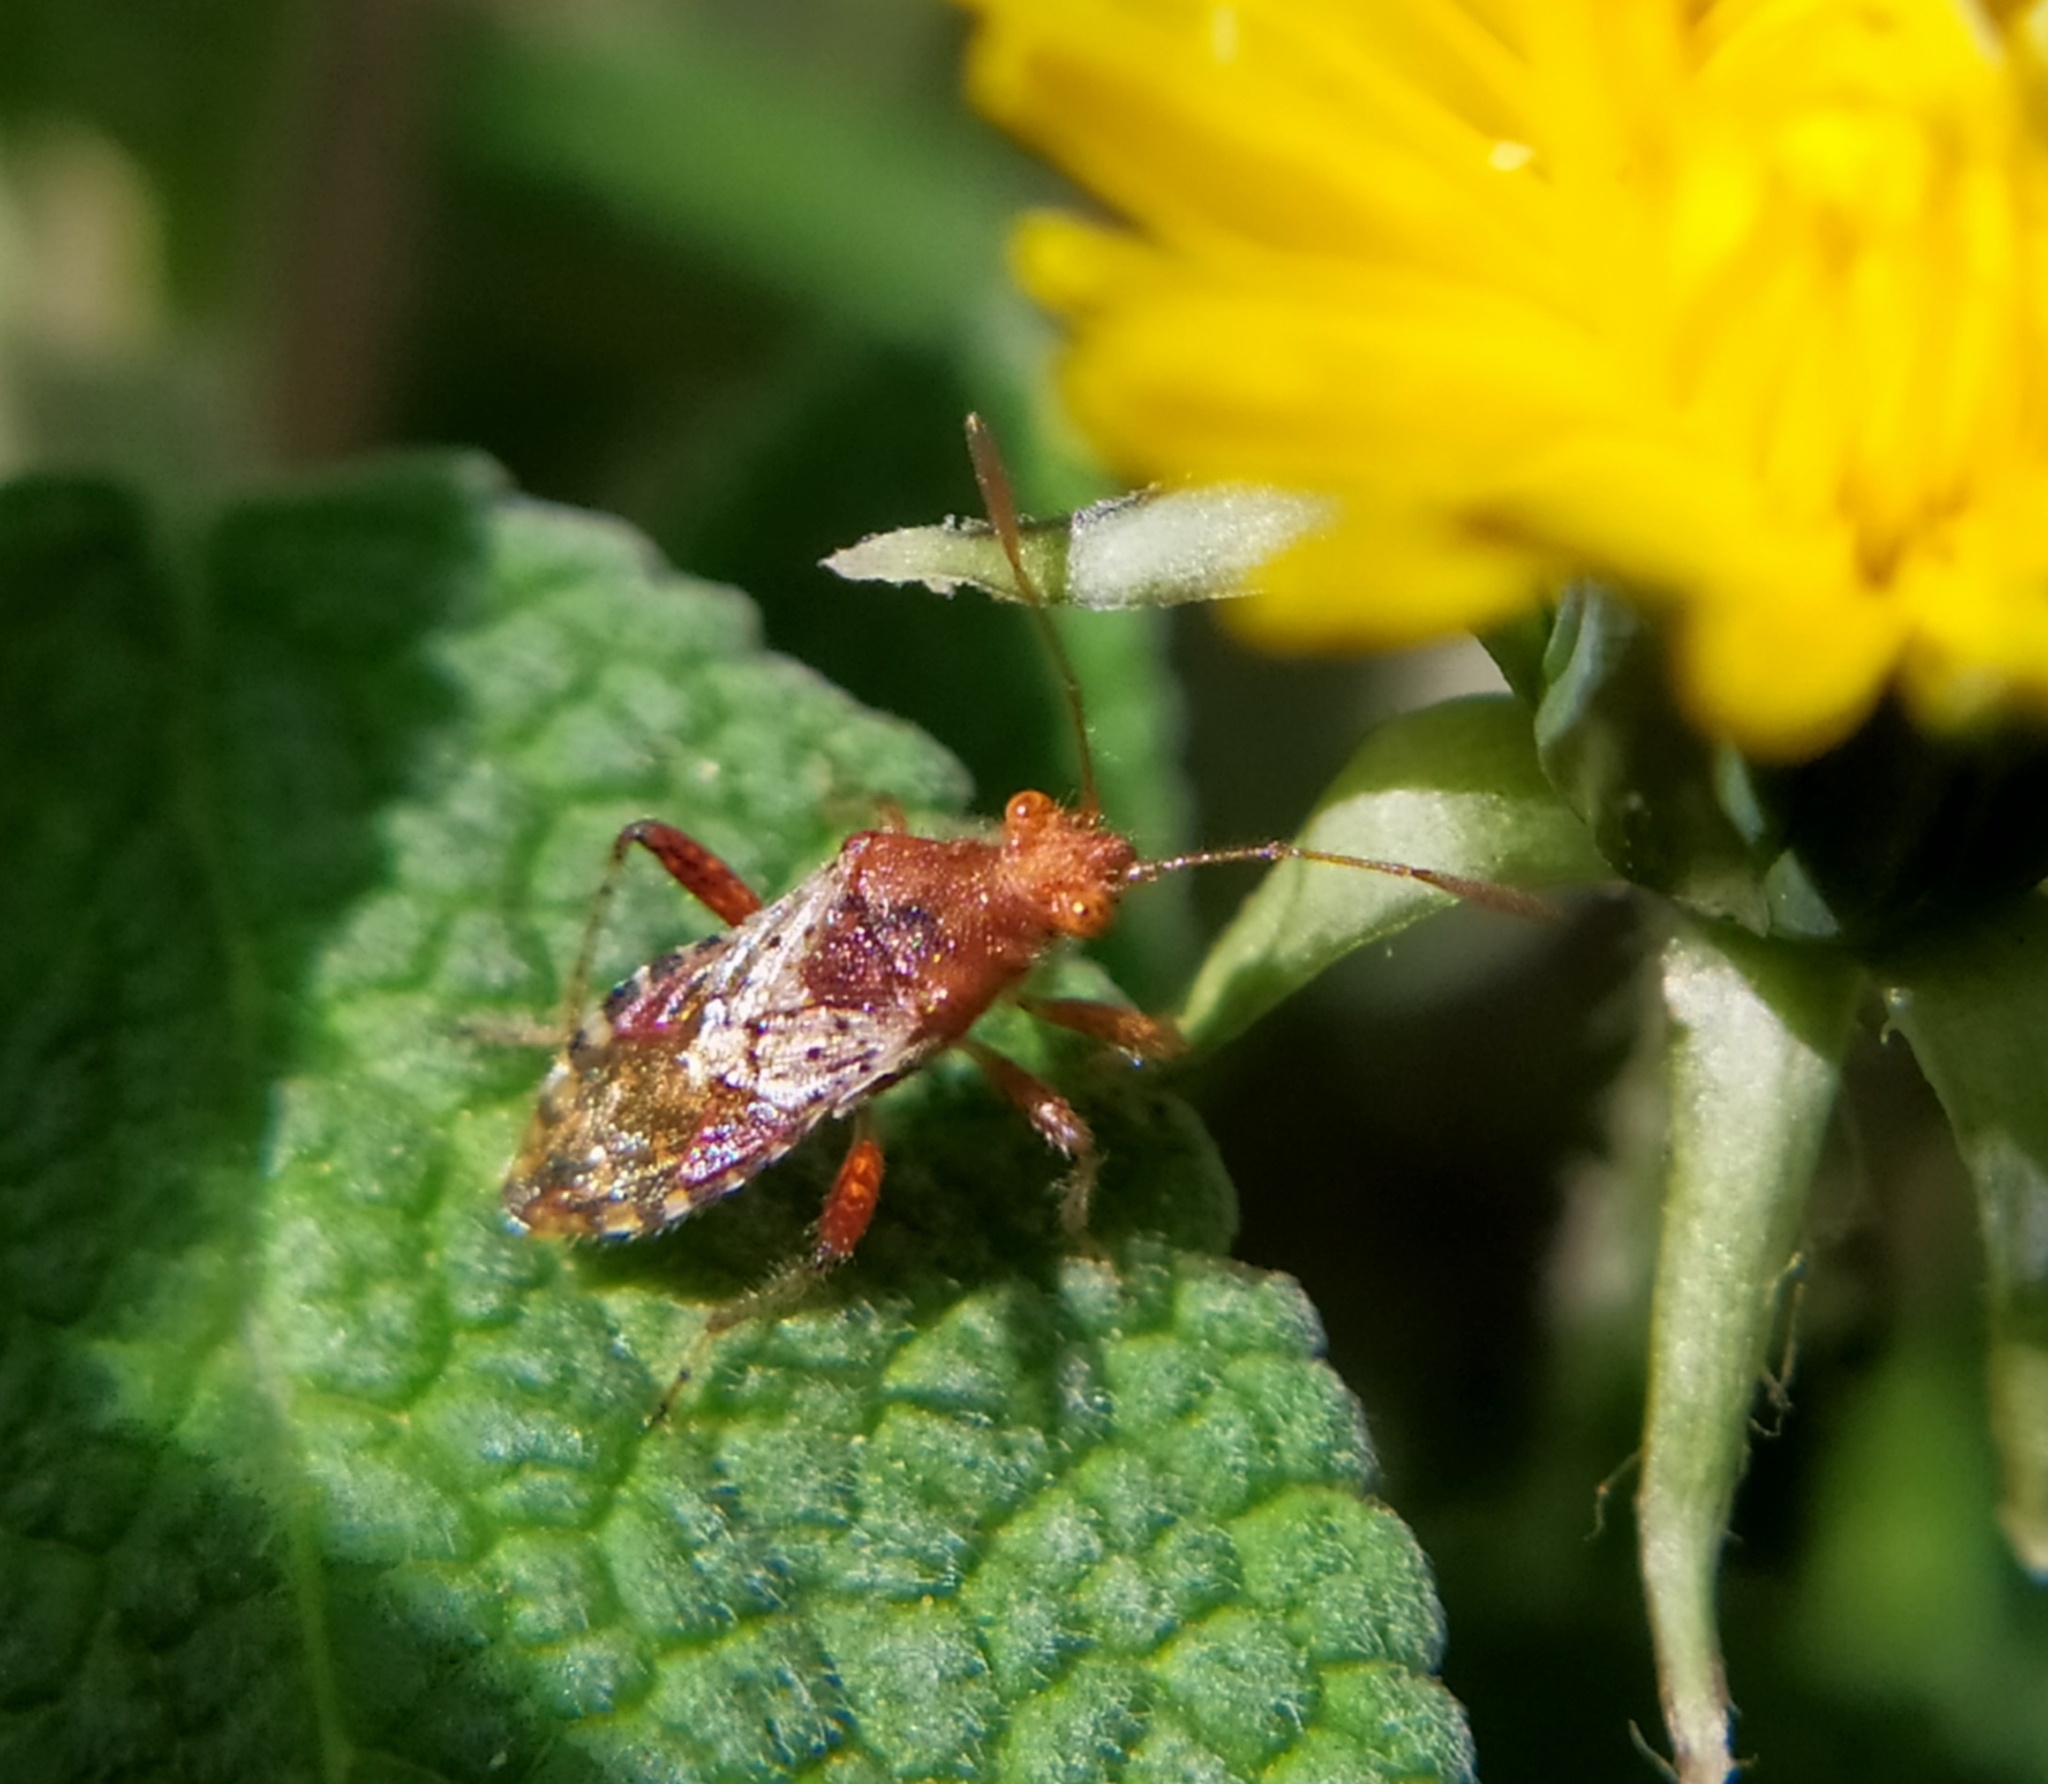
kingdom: Animalia
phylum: Arthropoda
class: Insecta
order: Hemiptera
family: Rhopalidae
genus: Rhopalus
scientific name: Rhopalus subrufus
